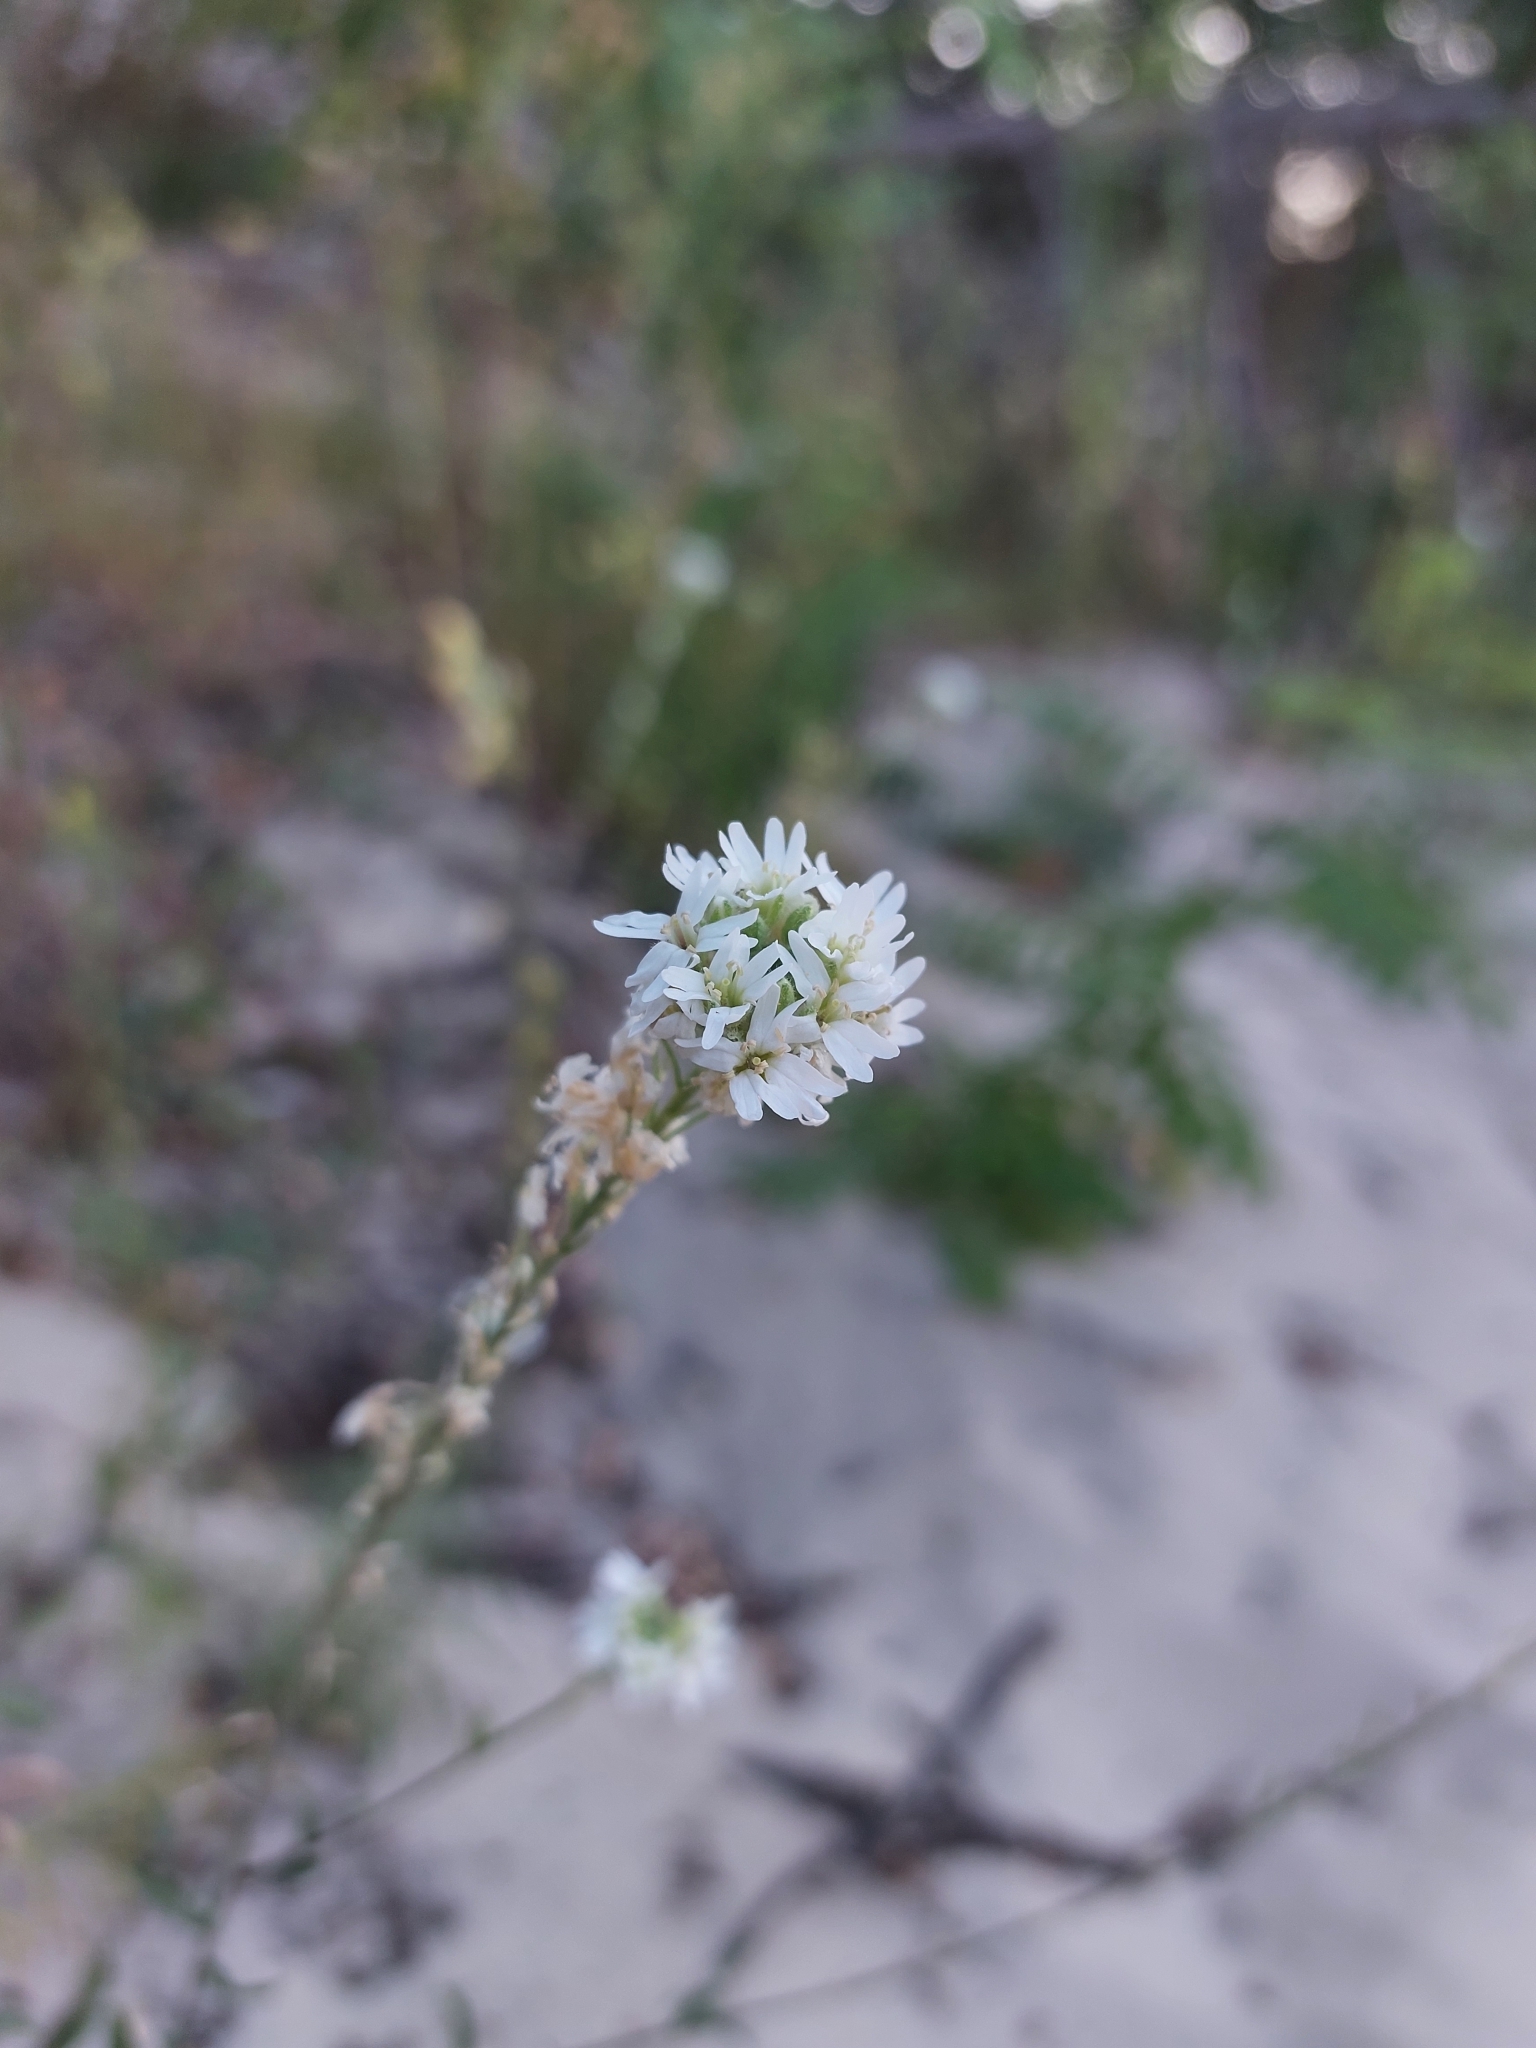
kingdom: Plantae
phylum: Tracheophyta
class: Magnoliopsida
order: Brassicales
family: Brassicaceae
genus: Berteroa
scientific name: Berteroa incana
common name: Hoary alison
